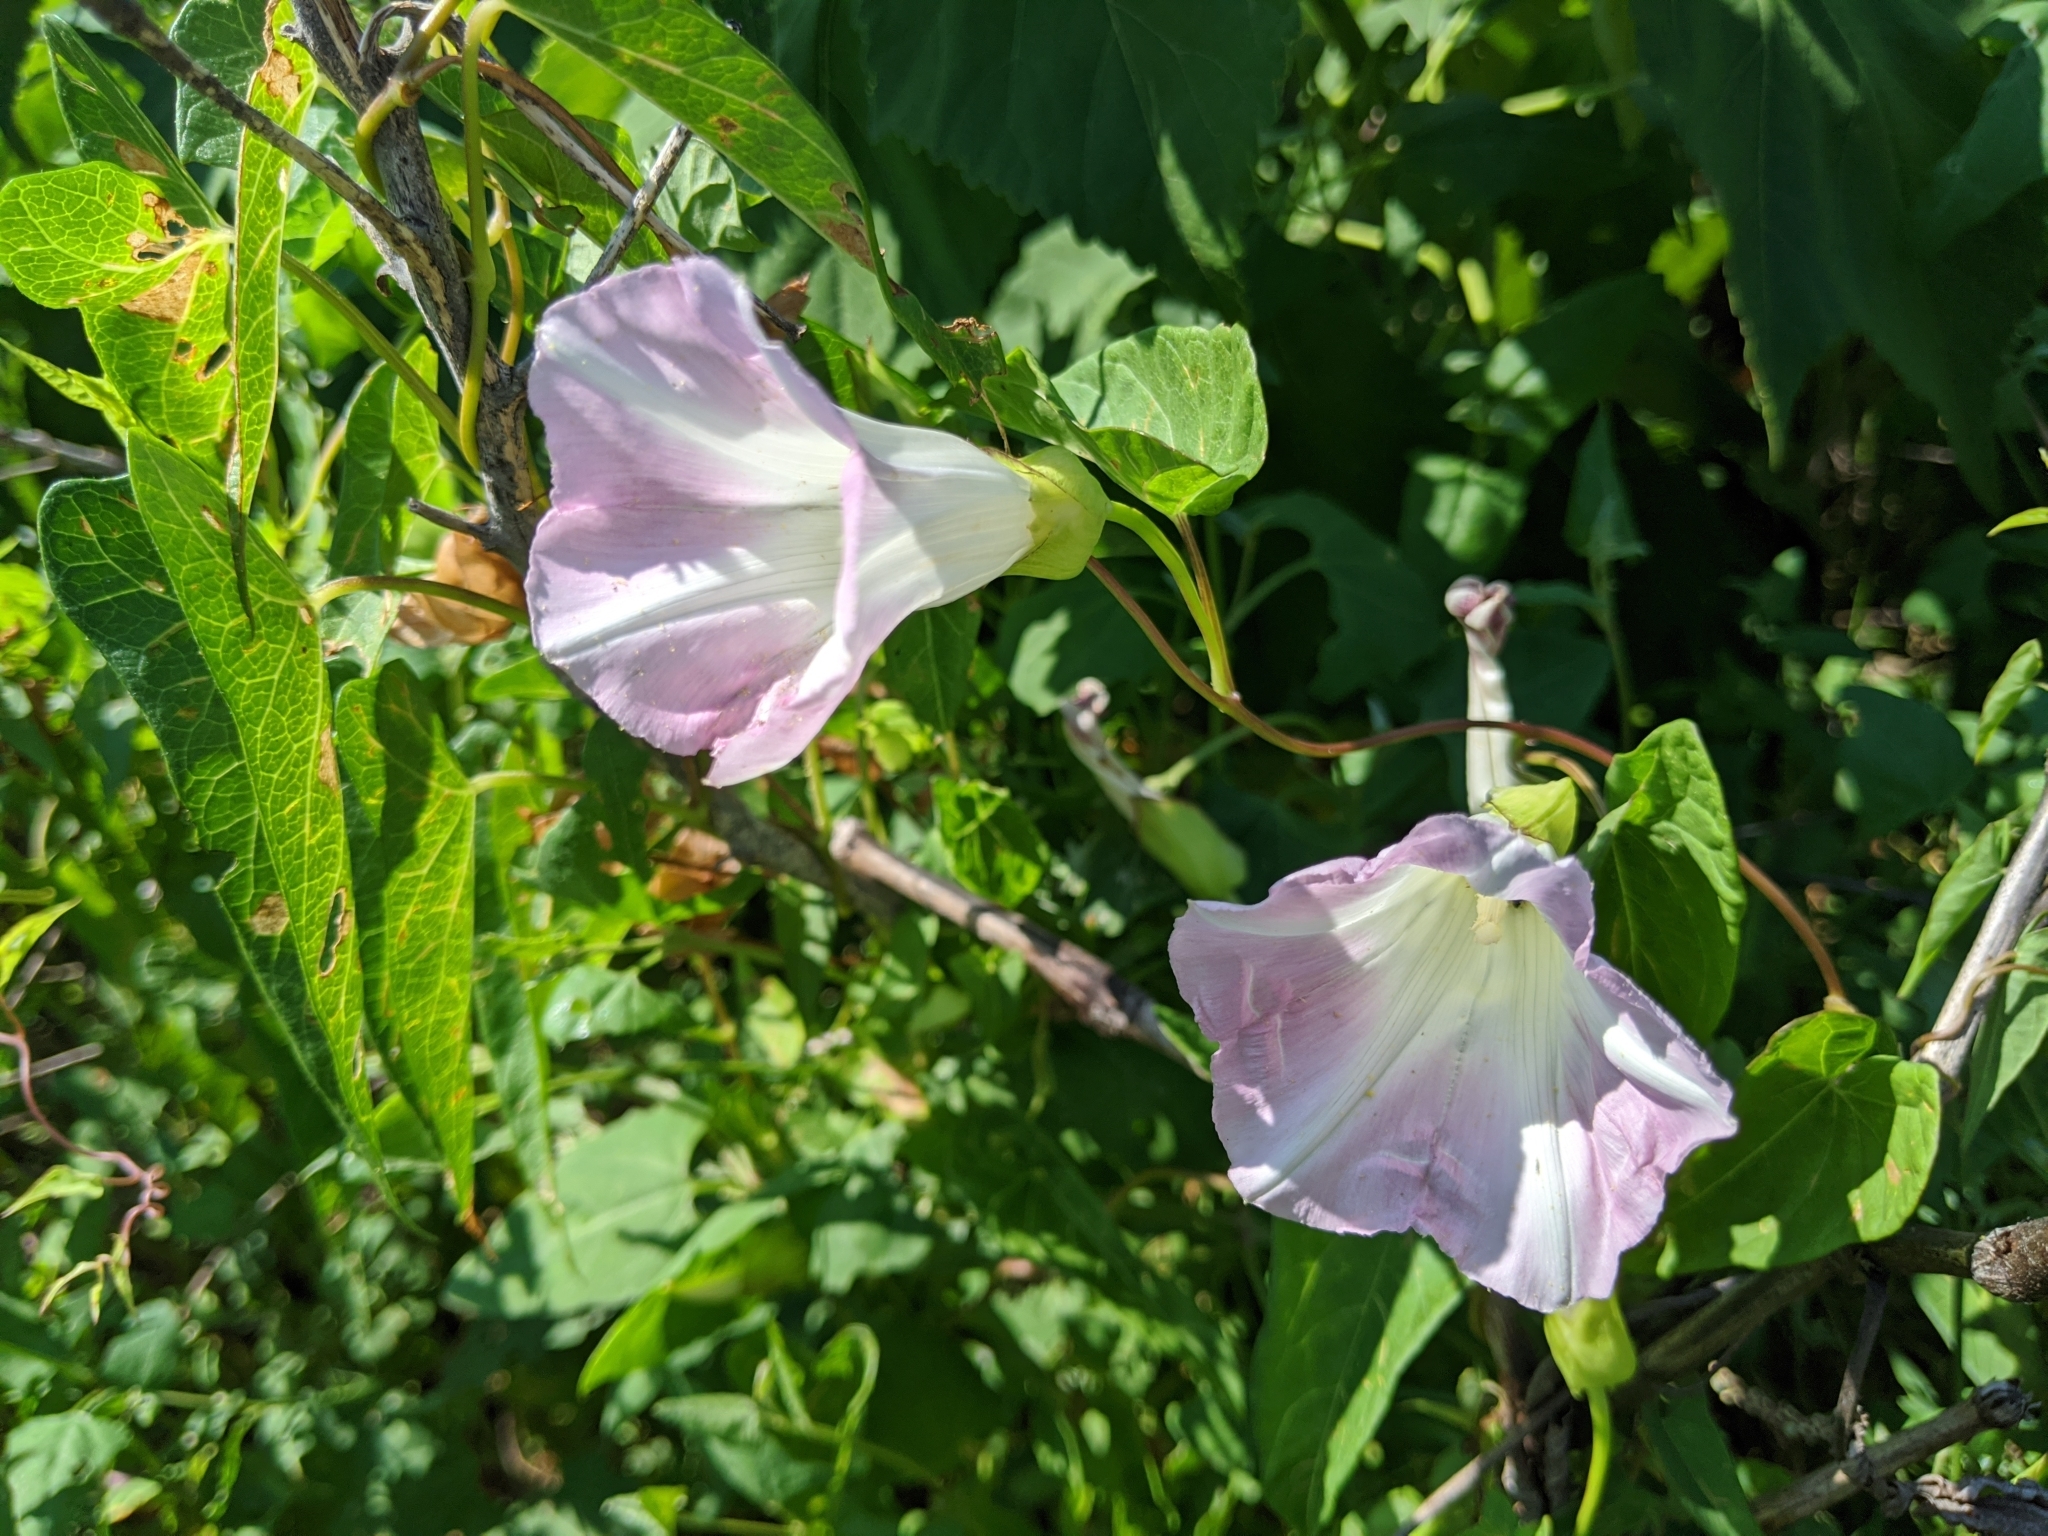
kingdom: Plantae
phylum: Tracheophyta
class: Magnoliopsida
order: Solanales
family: Convolvulaceae
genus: Calystegia
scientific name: Calystegia sepium
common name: Hedge bindweed
